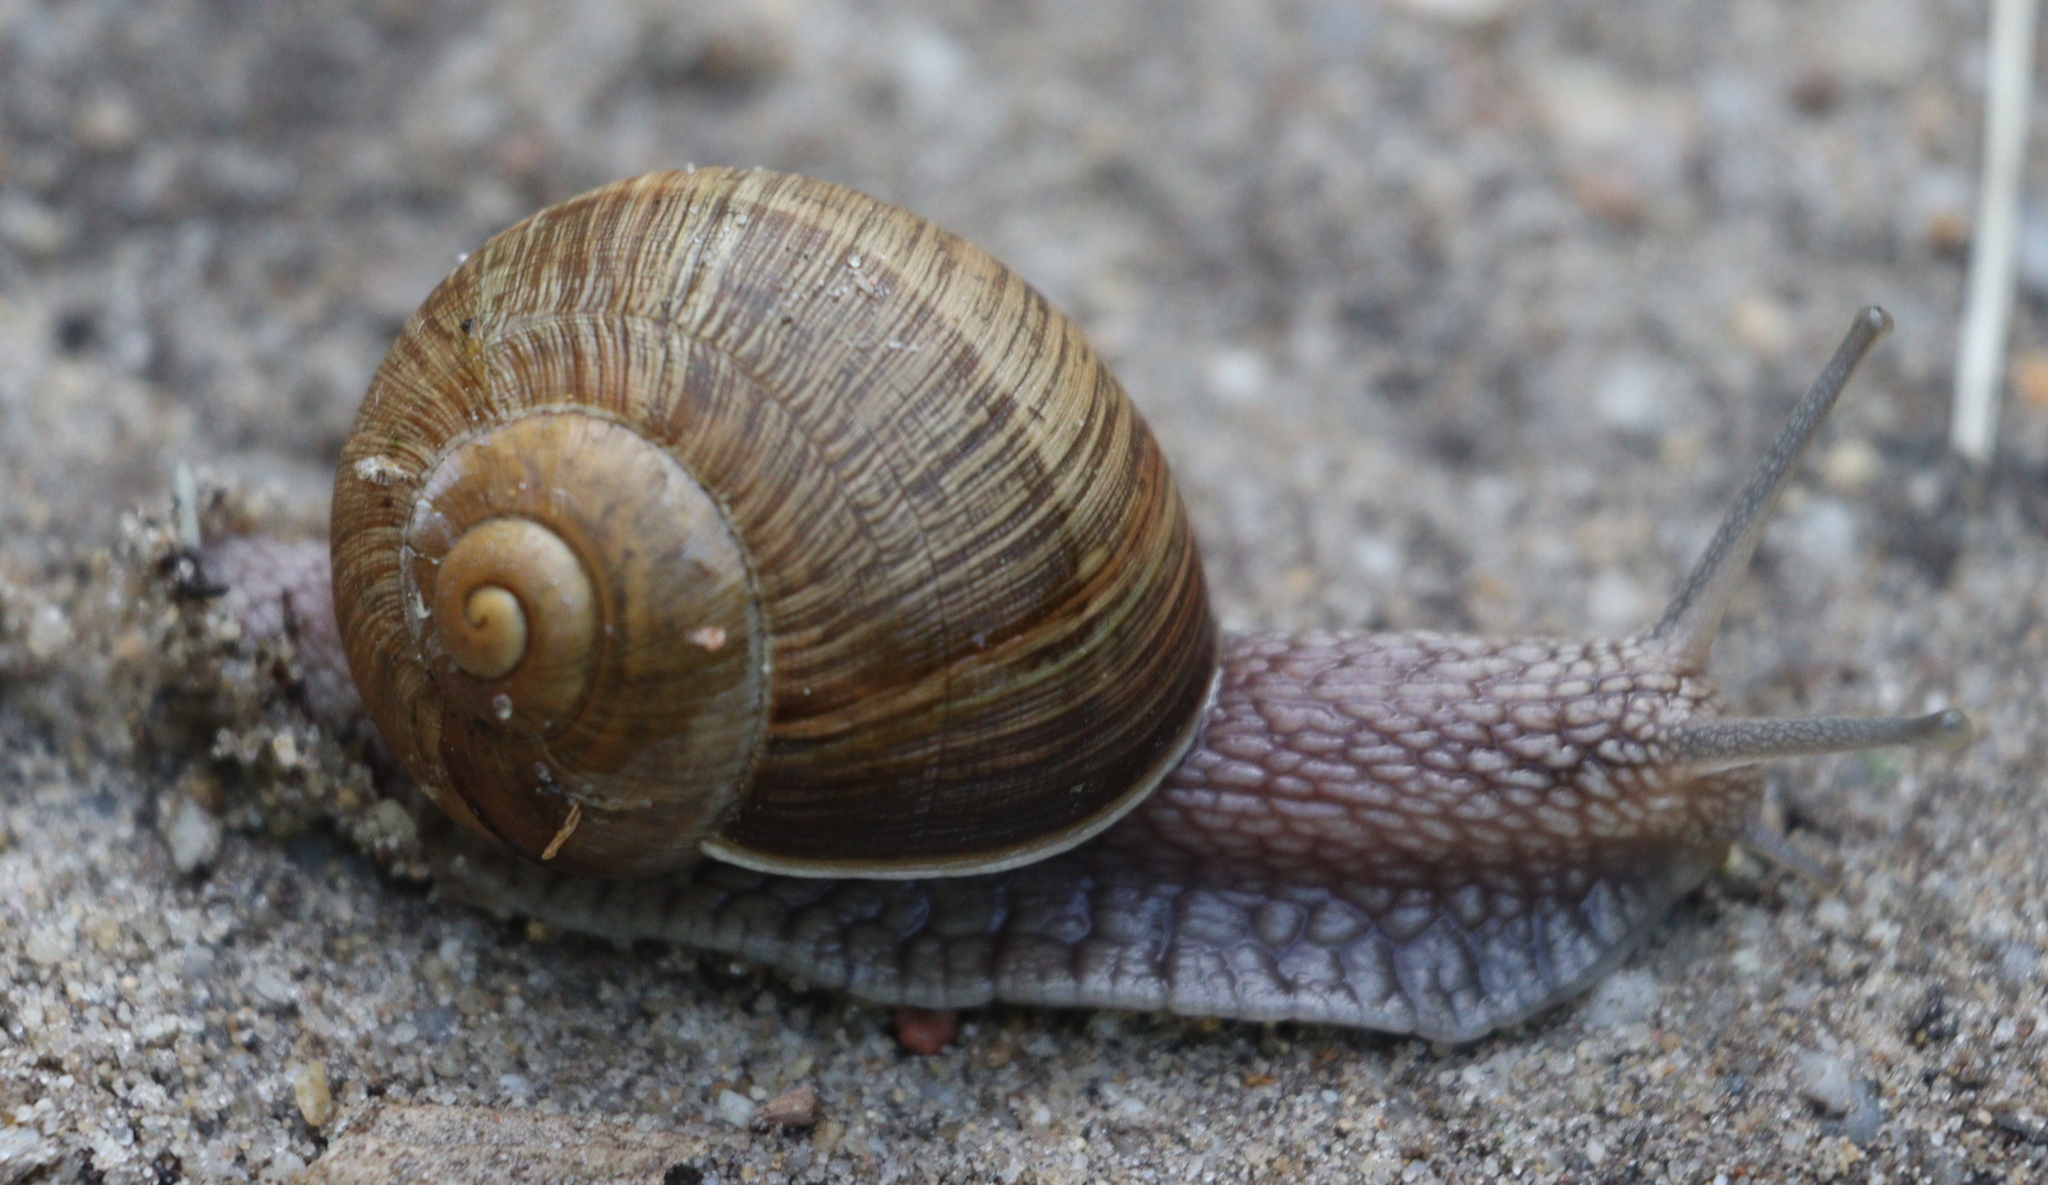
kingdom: Animalia
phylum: Mollusca
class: Gastropoda
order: Stylommatophora
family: Helicidae
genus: Helix
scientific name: Helix pomatia
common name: Roman snail
